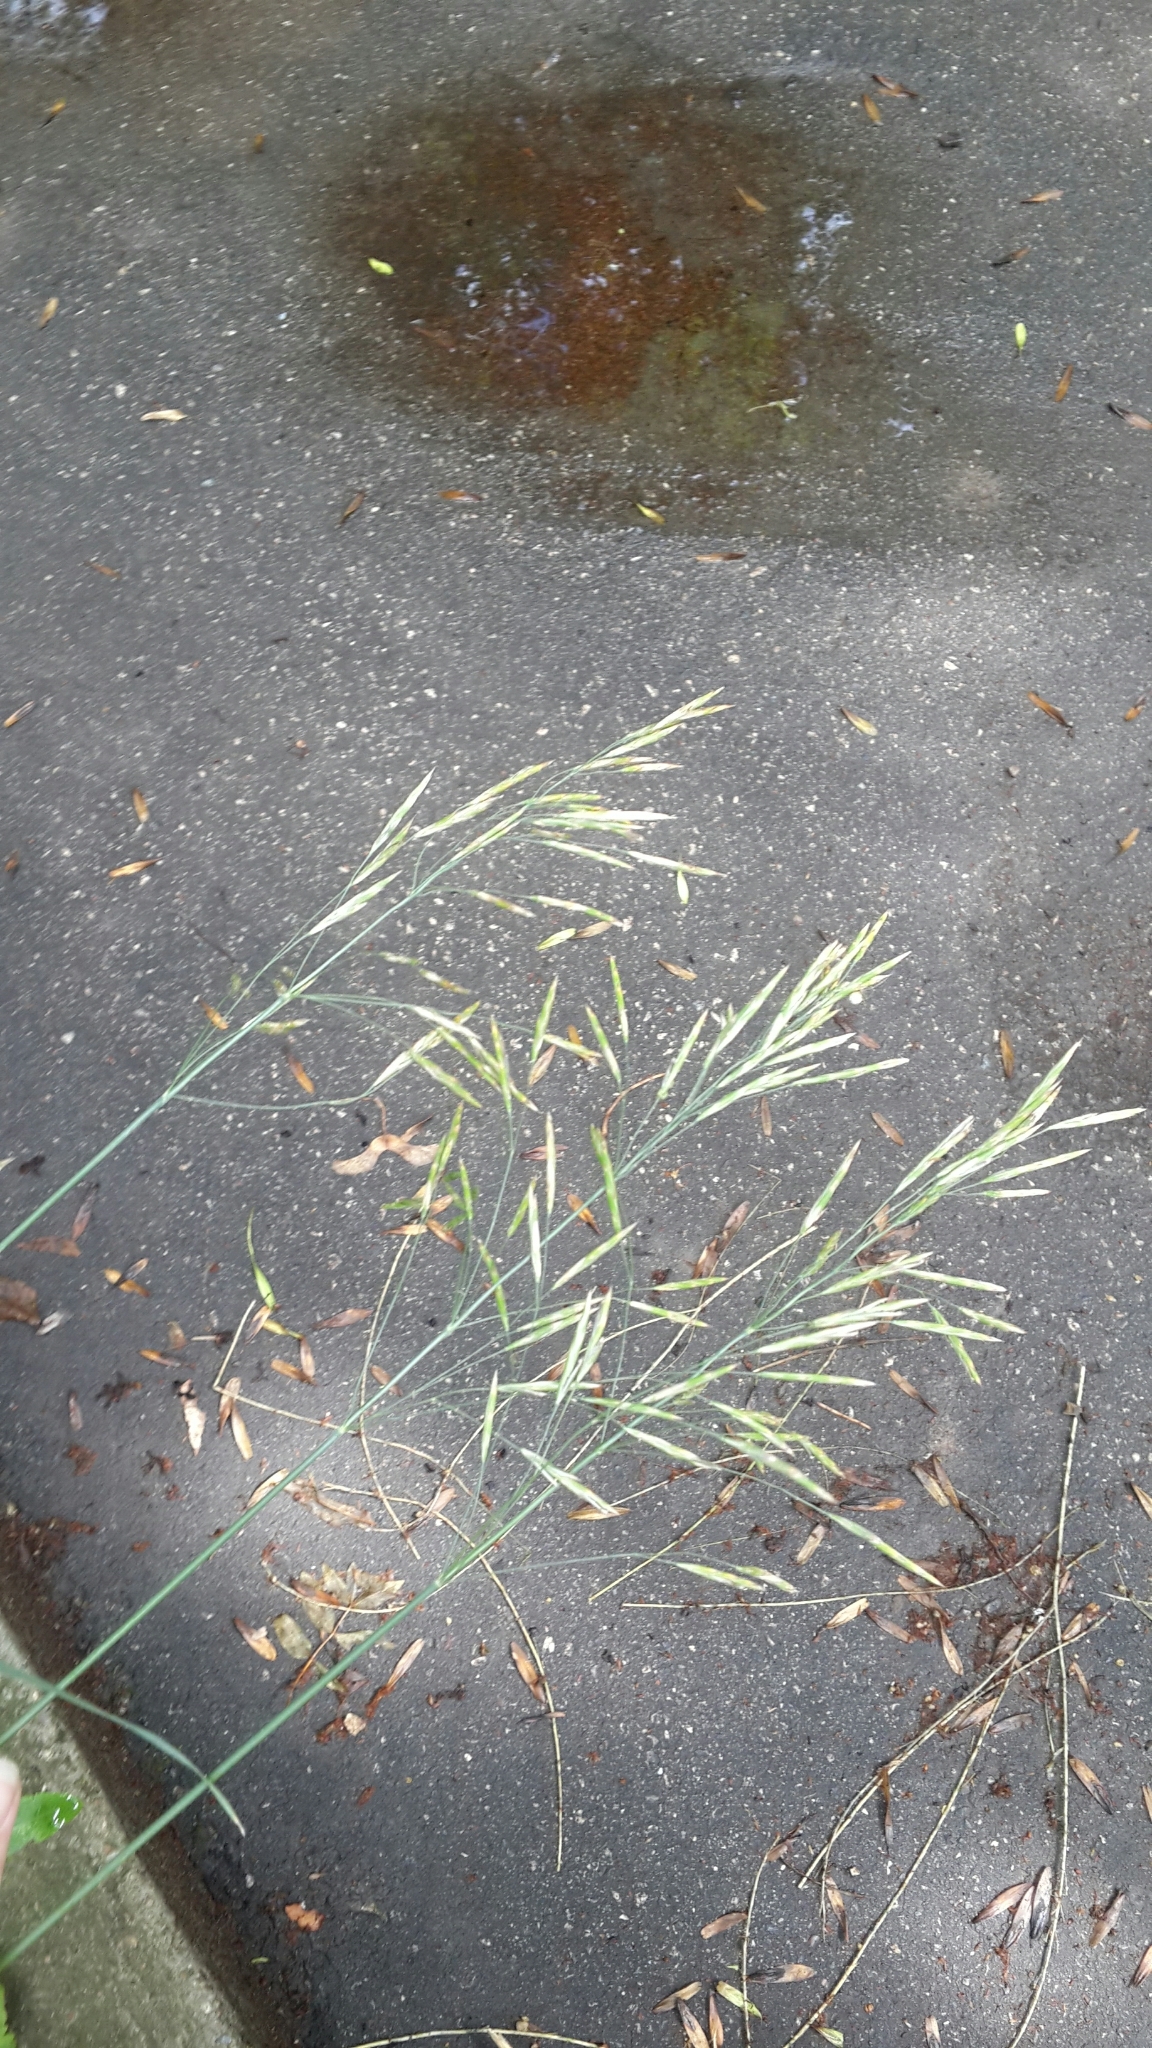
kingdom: Plantae
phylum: Tracheophyta
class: Liliopsida
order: Poales
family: Poaceae
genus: Bromus
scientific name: Bromus inermis
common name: Smooth brome
